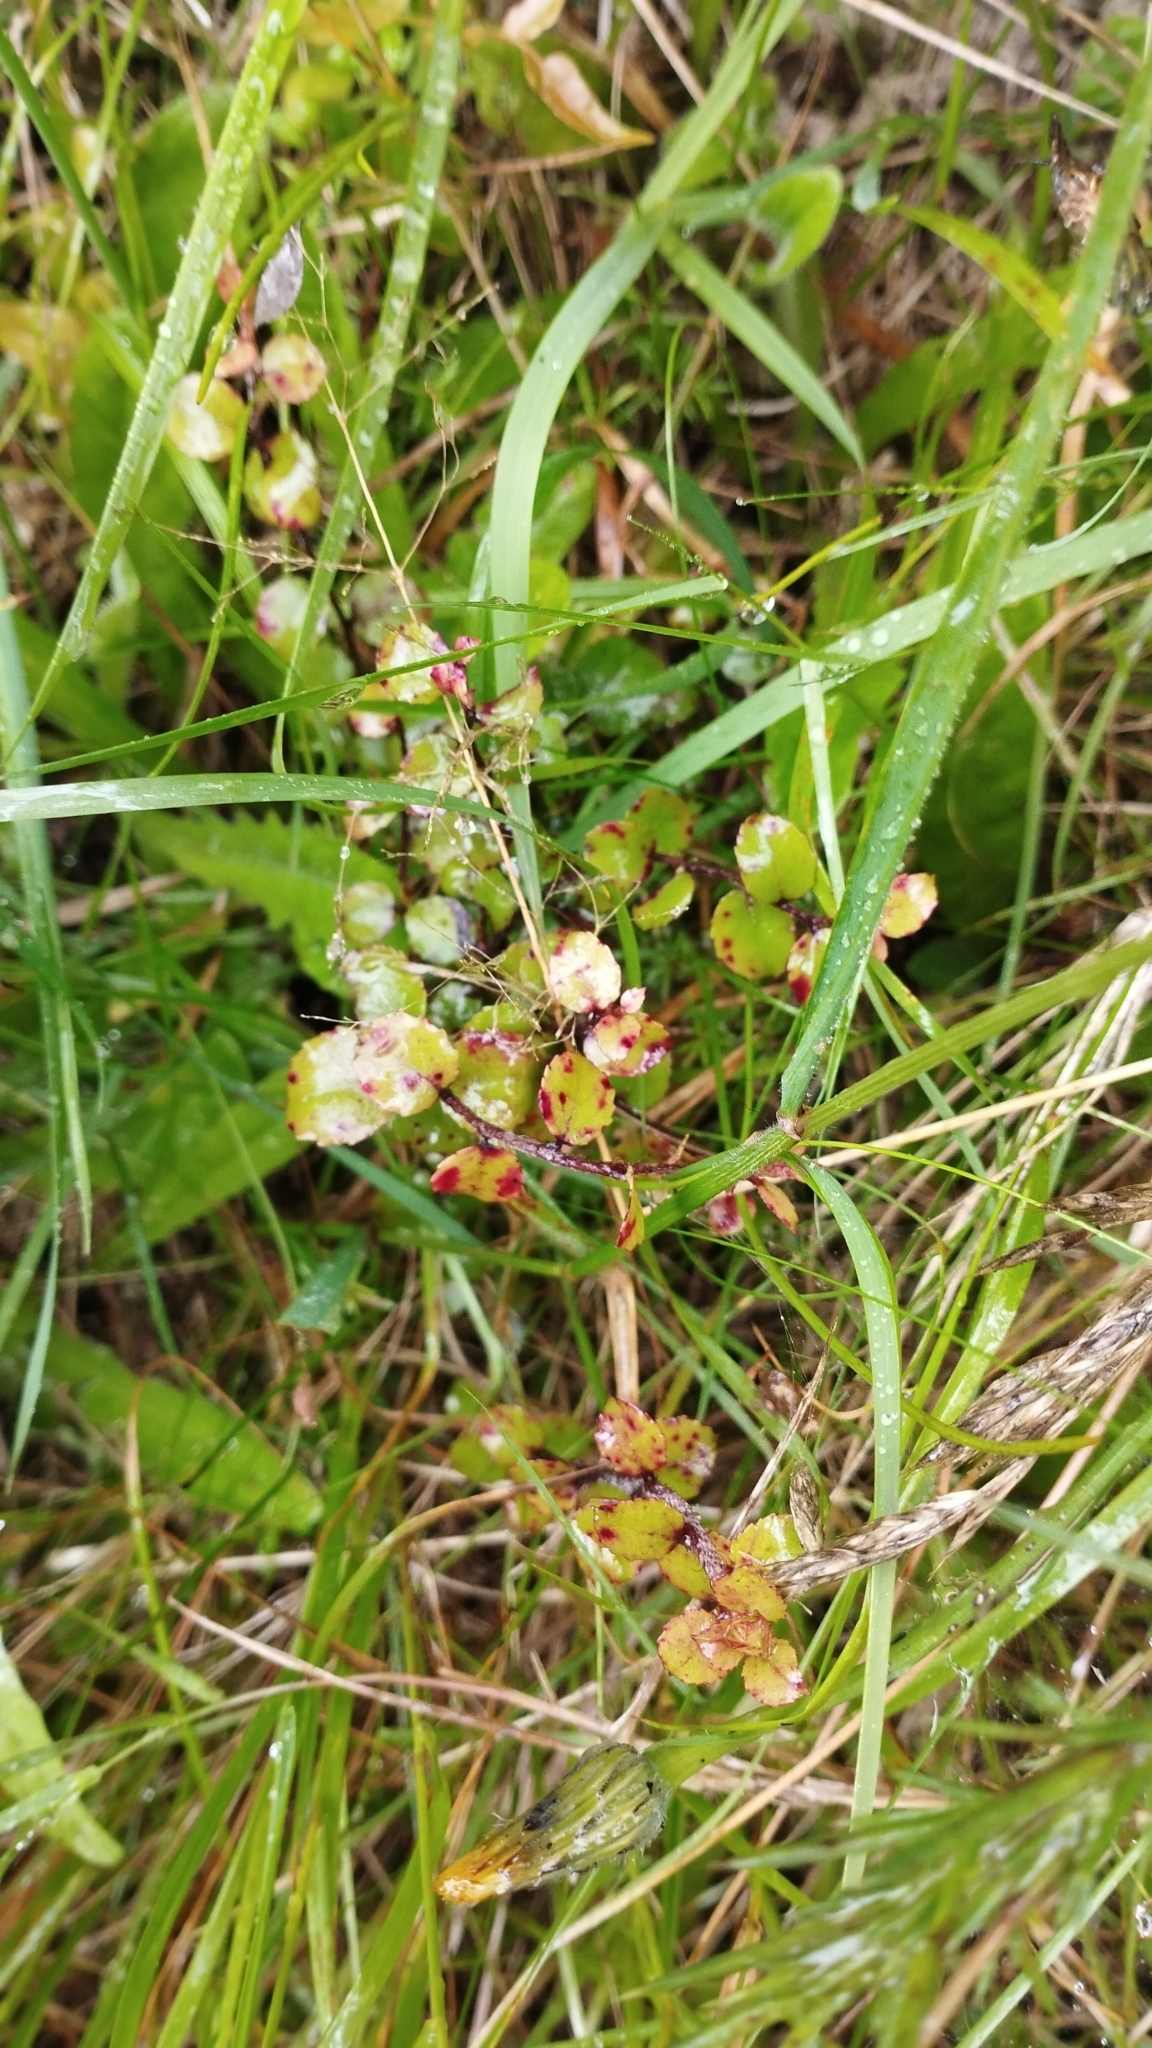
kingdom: Plantae
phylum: Tracheophyta
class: Magnoliopsida
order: Ericales
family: Ericaceae
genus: Gaultheria
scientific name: Gaultheria antipoda
